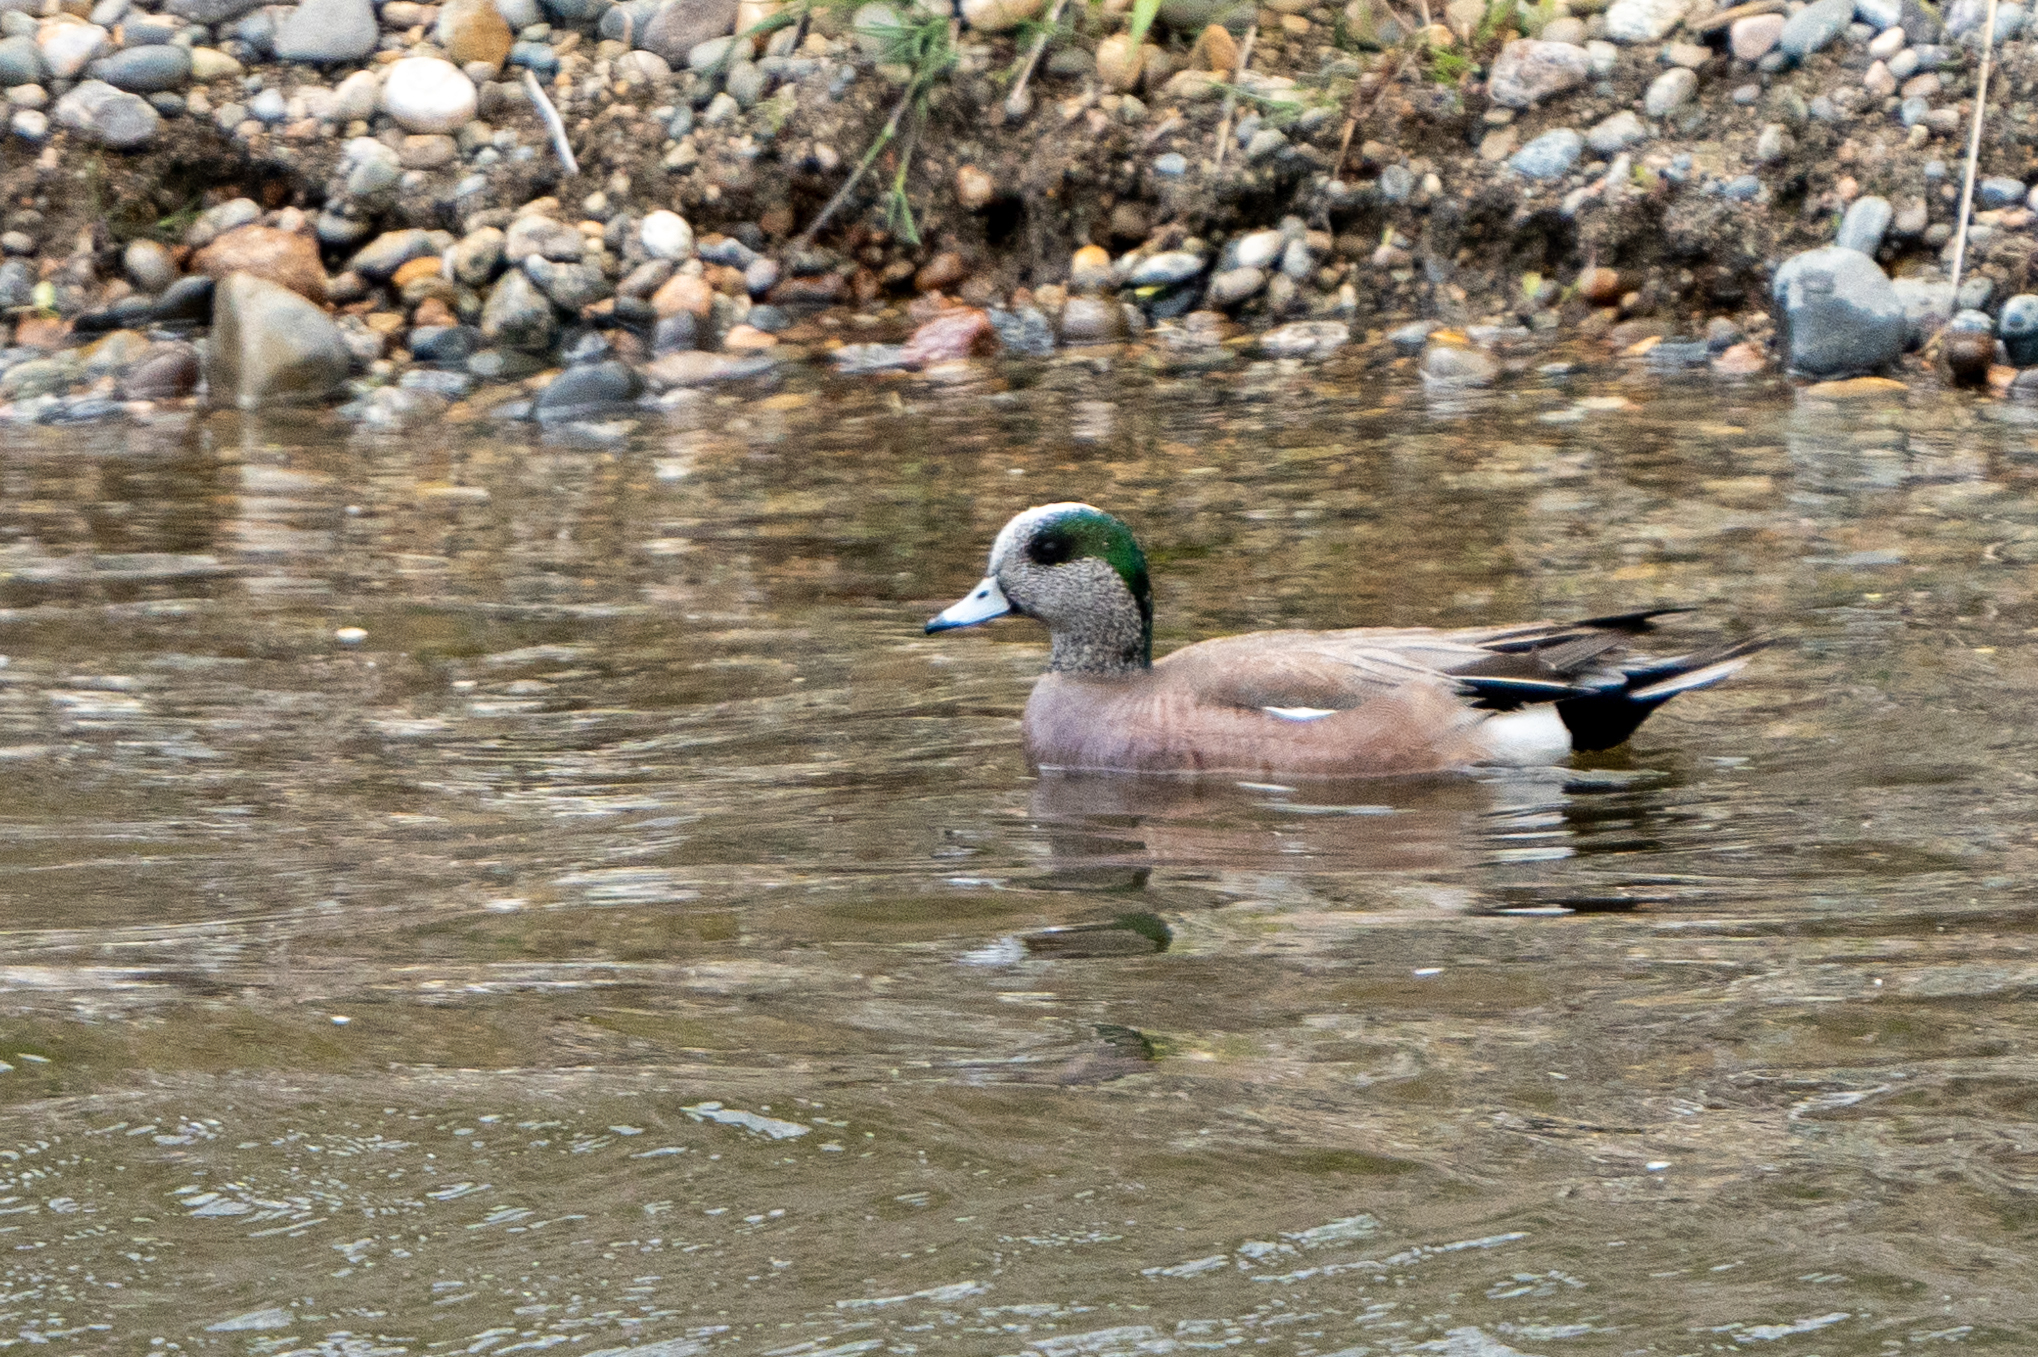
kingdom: Animalia
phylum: Chordata
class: Aves
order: Anseriformes
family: Anatidae
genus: Mareca
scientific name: Mareca americana
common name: American wigeon
